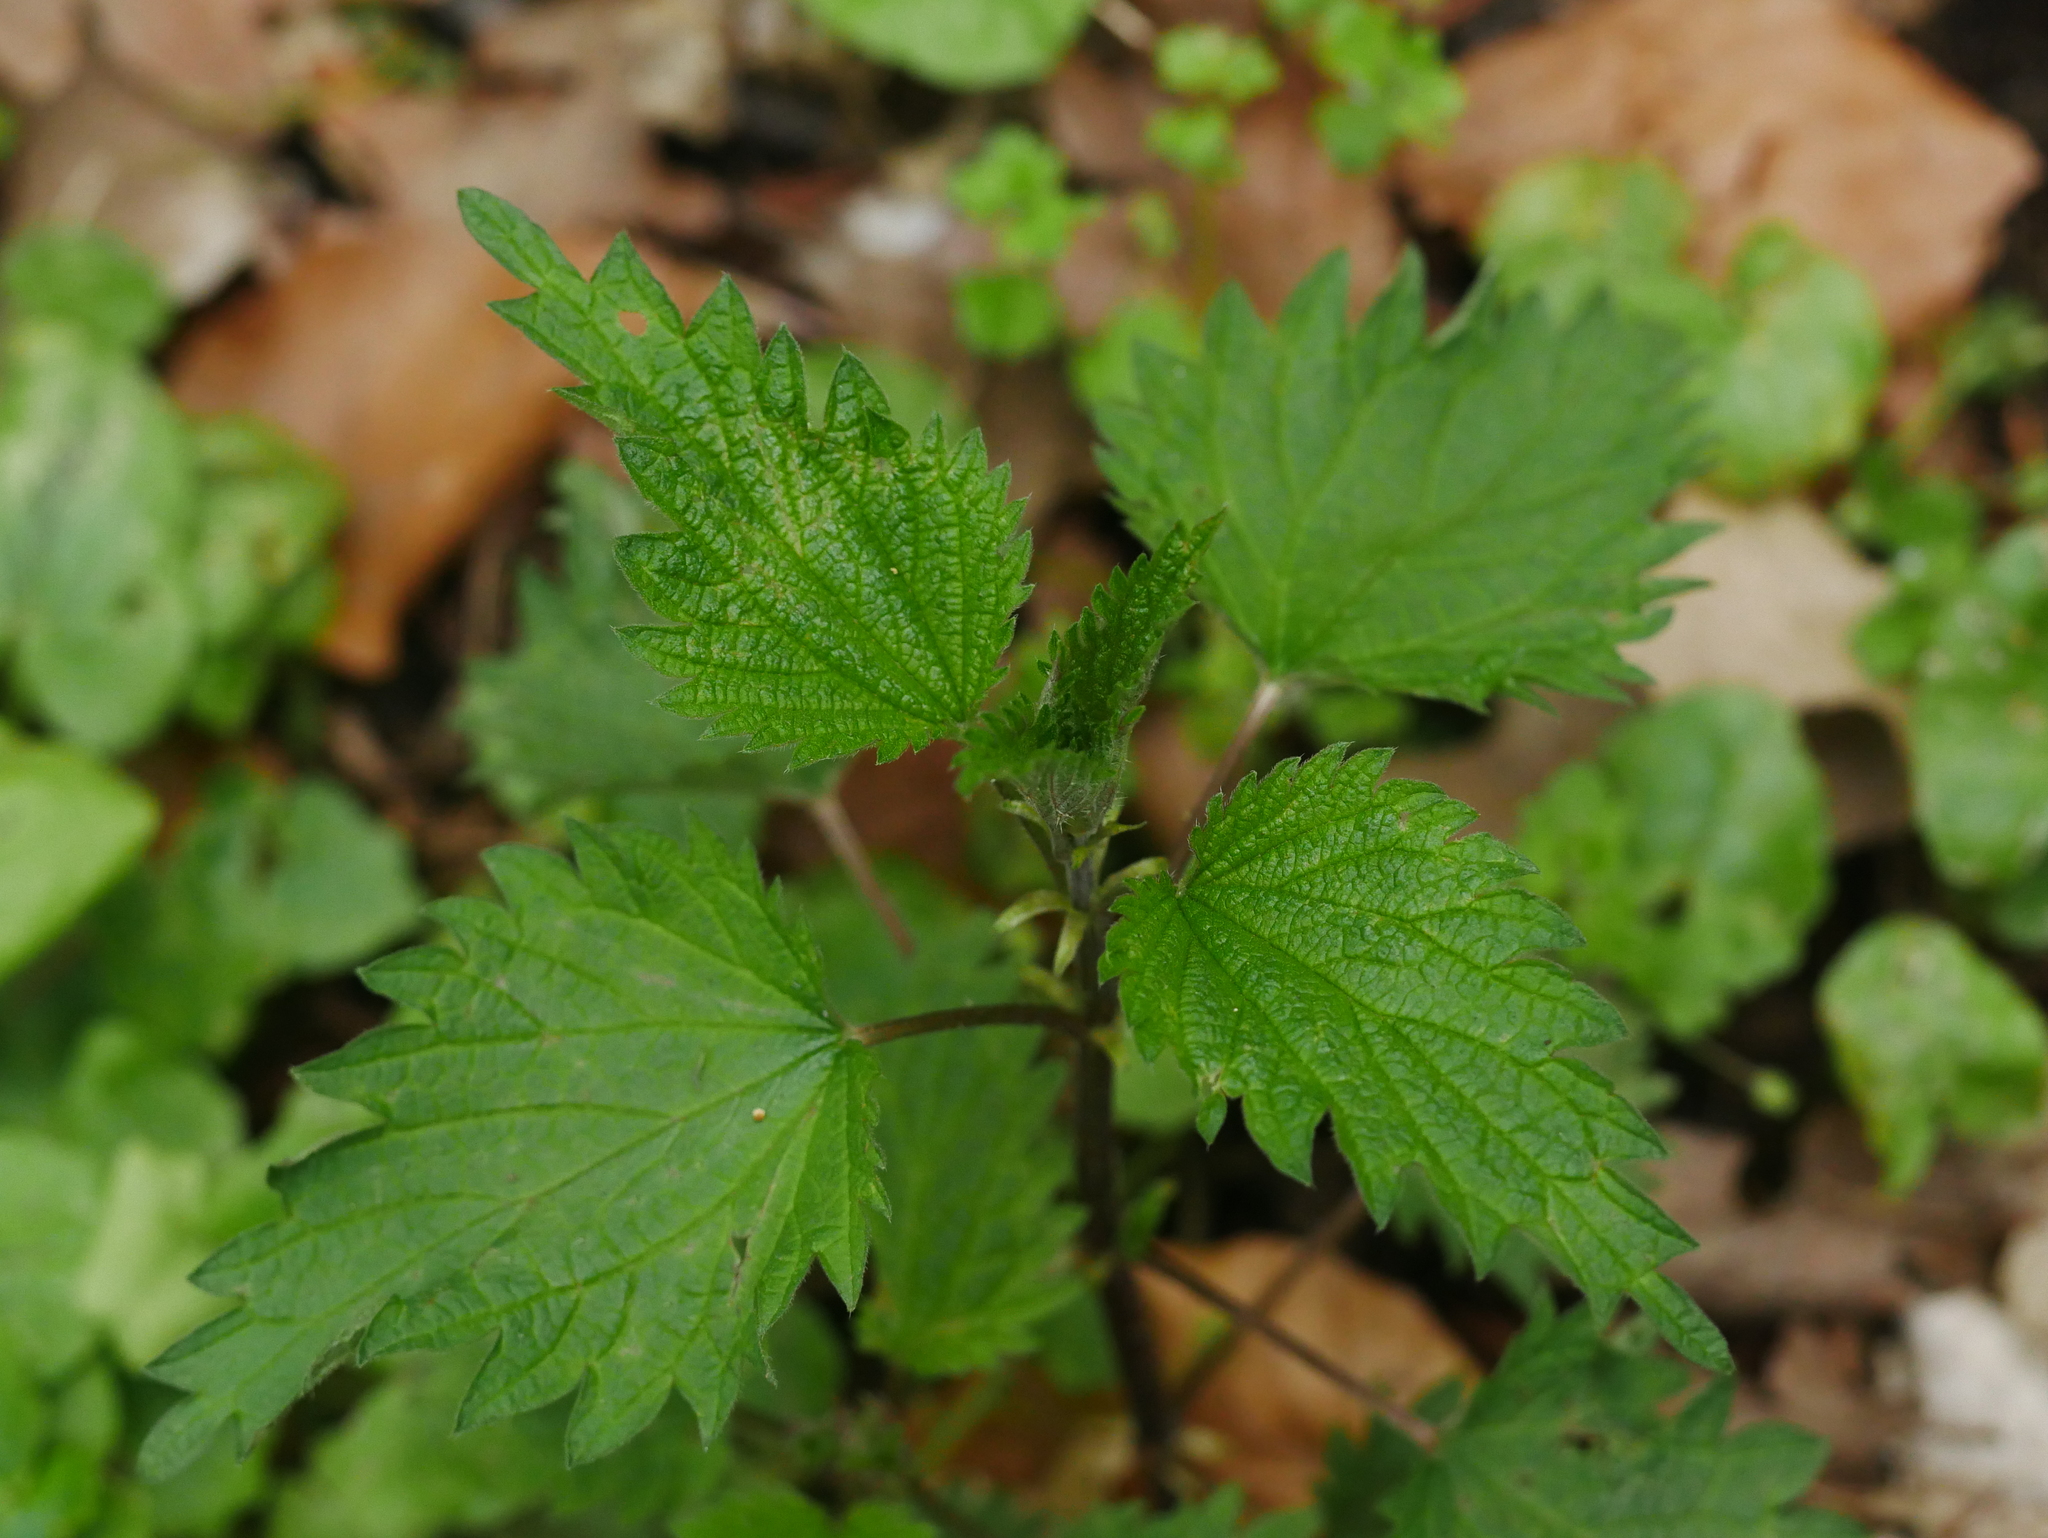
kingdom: Plantae
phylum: Tracheophyta
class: Magnoliopsida
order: Rosales
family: Urticaceae
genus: Urtica
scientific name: Urtica dioica
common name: Common nettle
